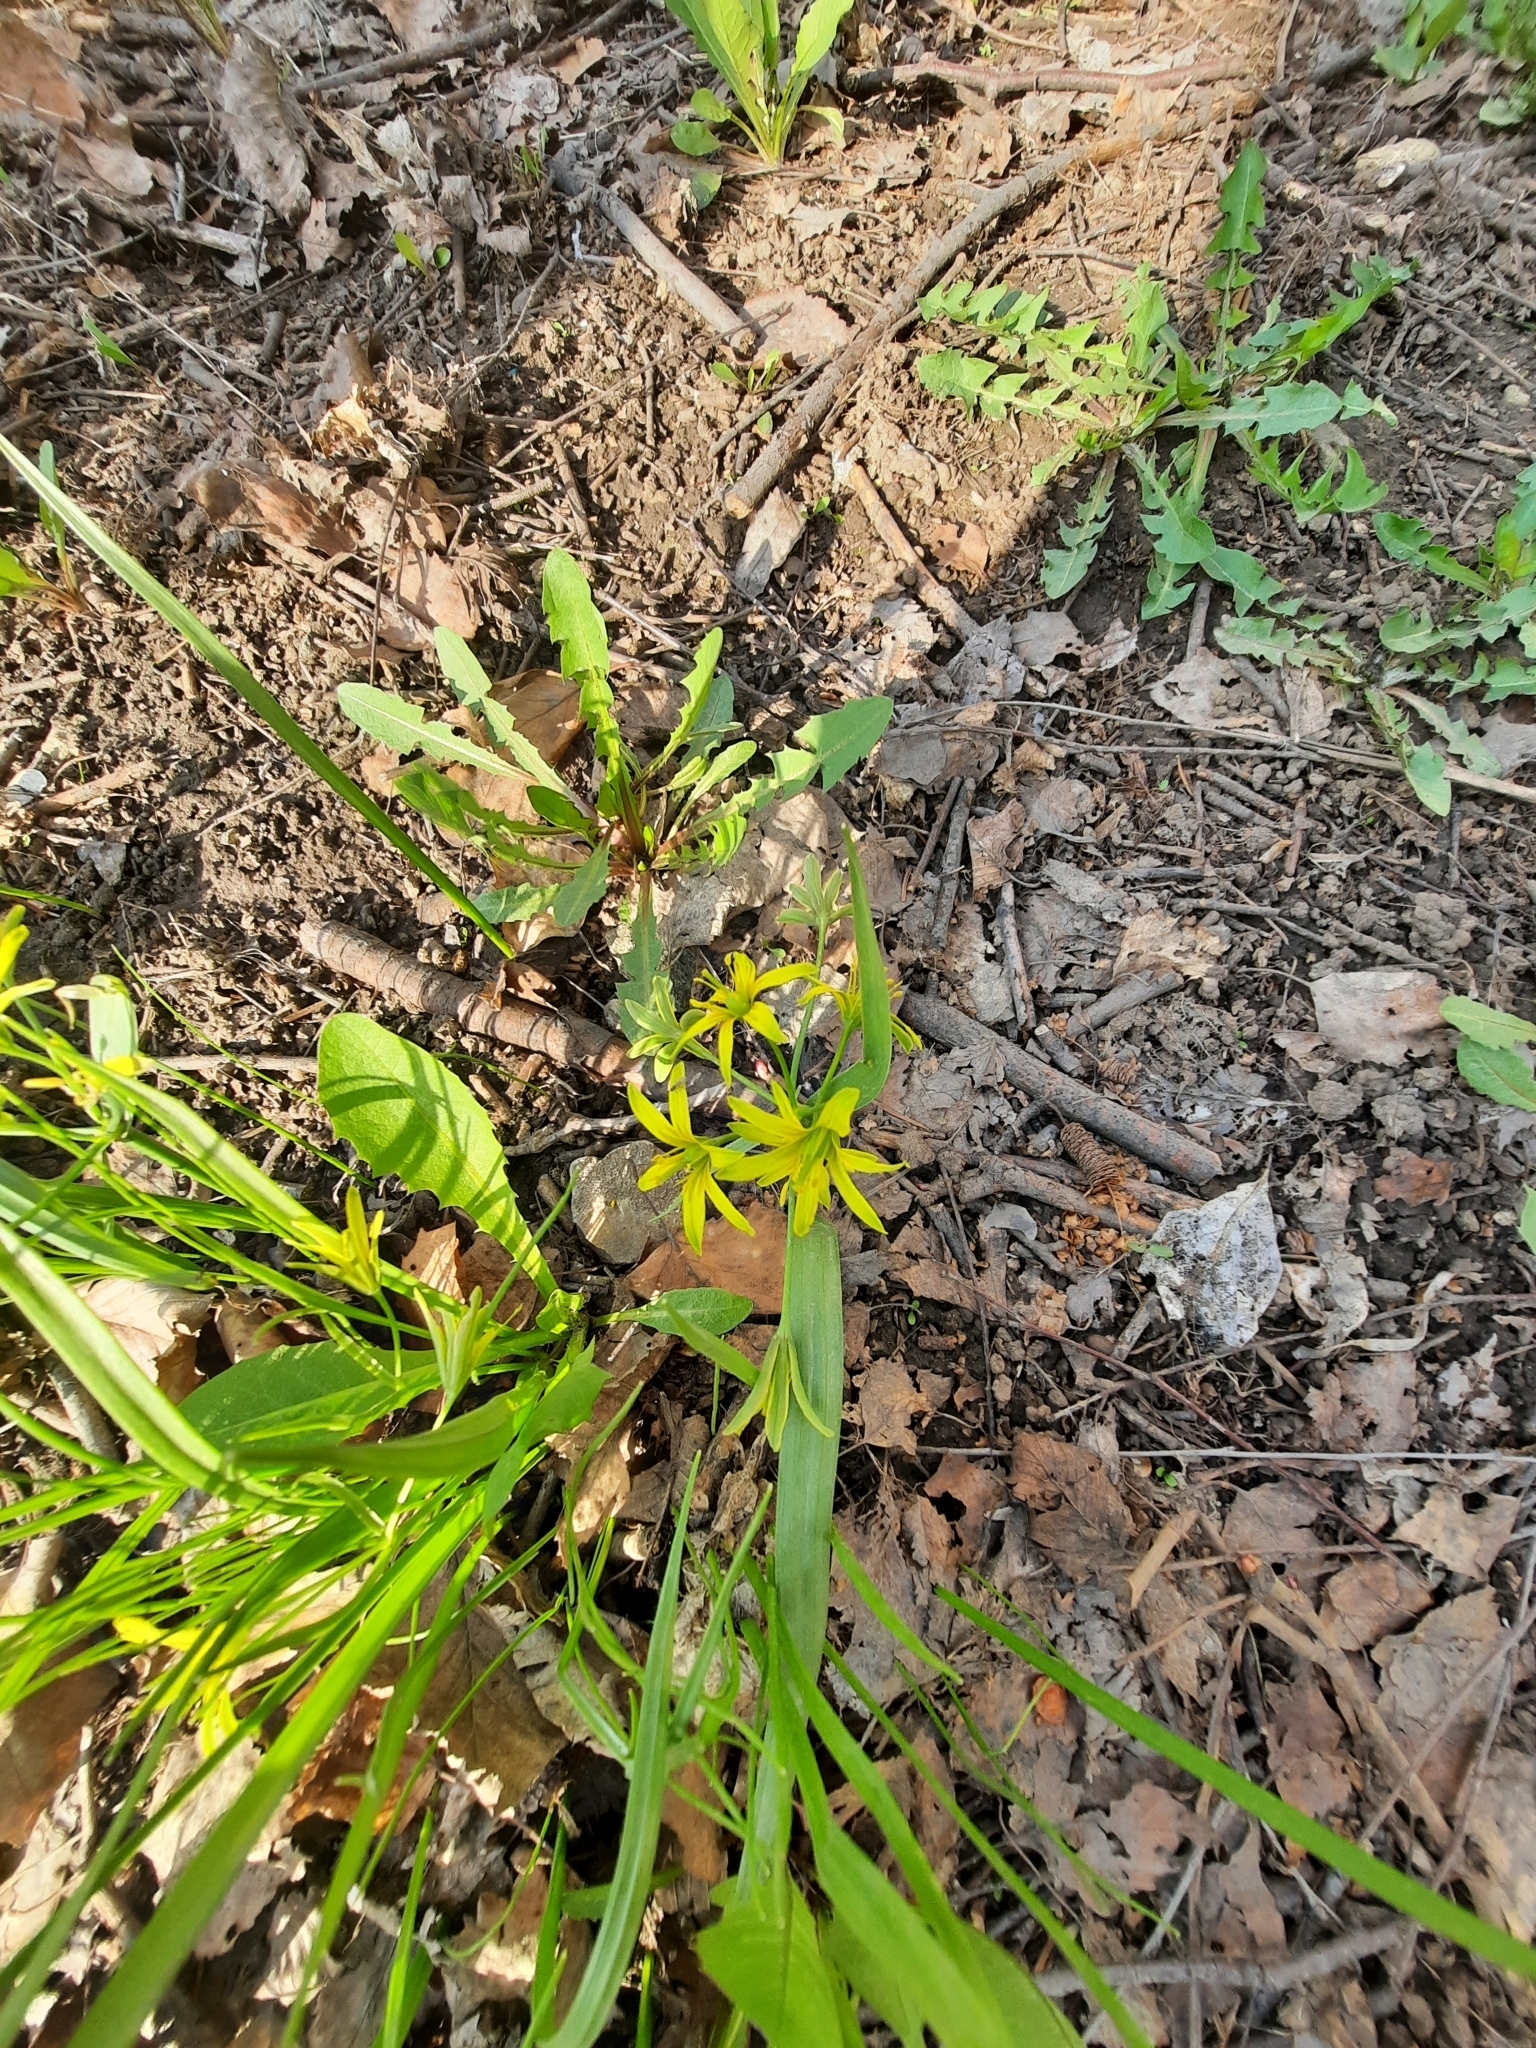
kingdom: Plantae
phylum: Tracheophyta
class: Liliopsida
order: Liliales
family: Liliaceae
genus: Gagea
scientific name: Gagea lutea
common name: Yellow star-of-bethlehem
